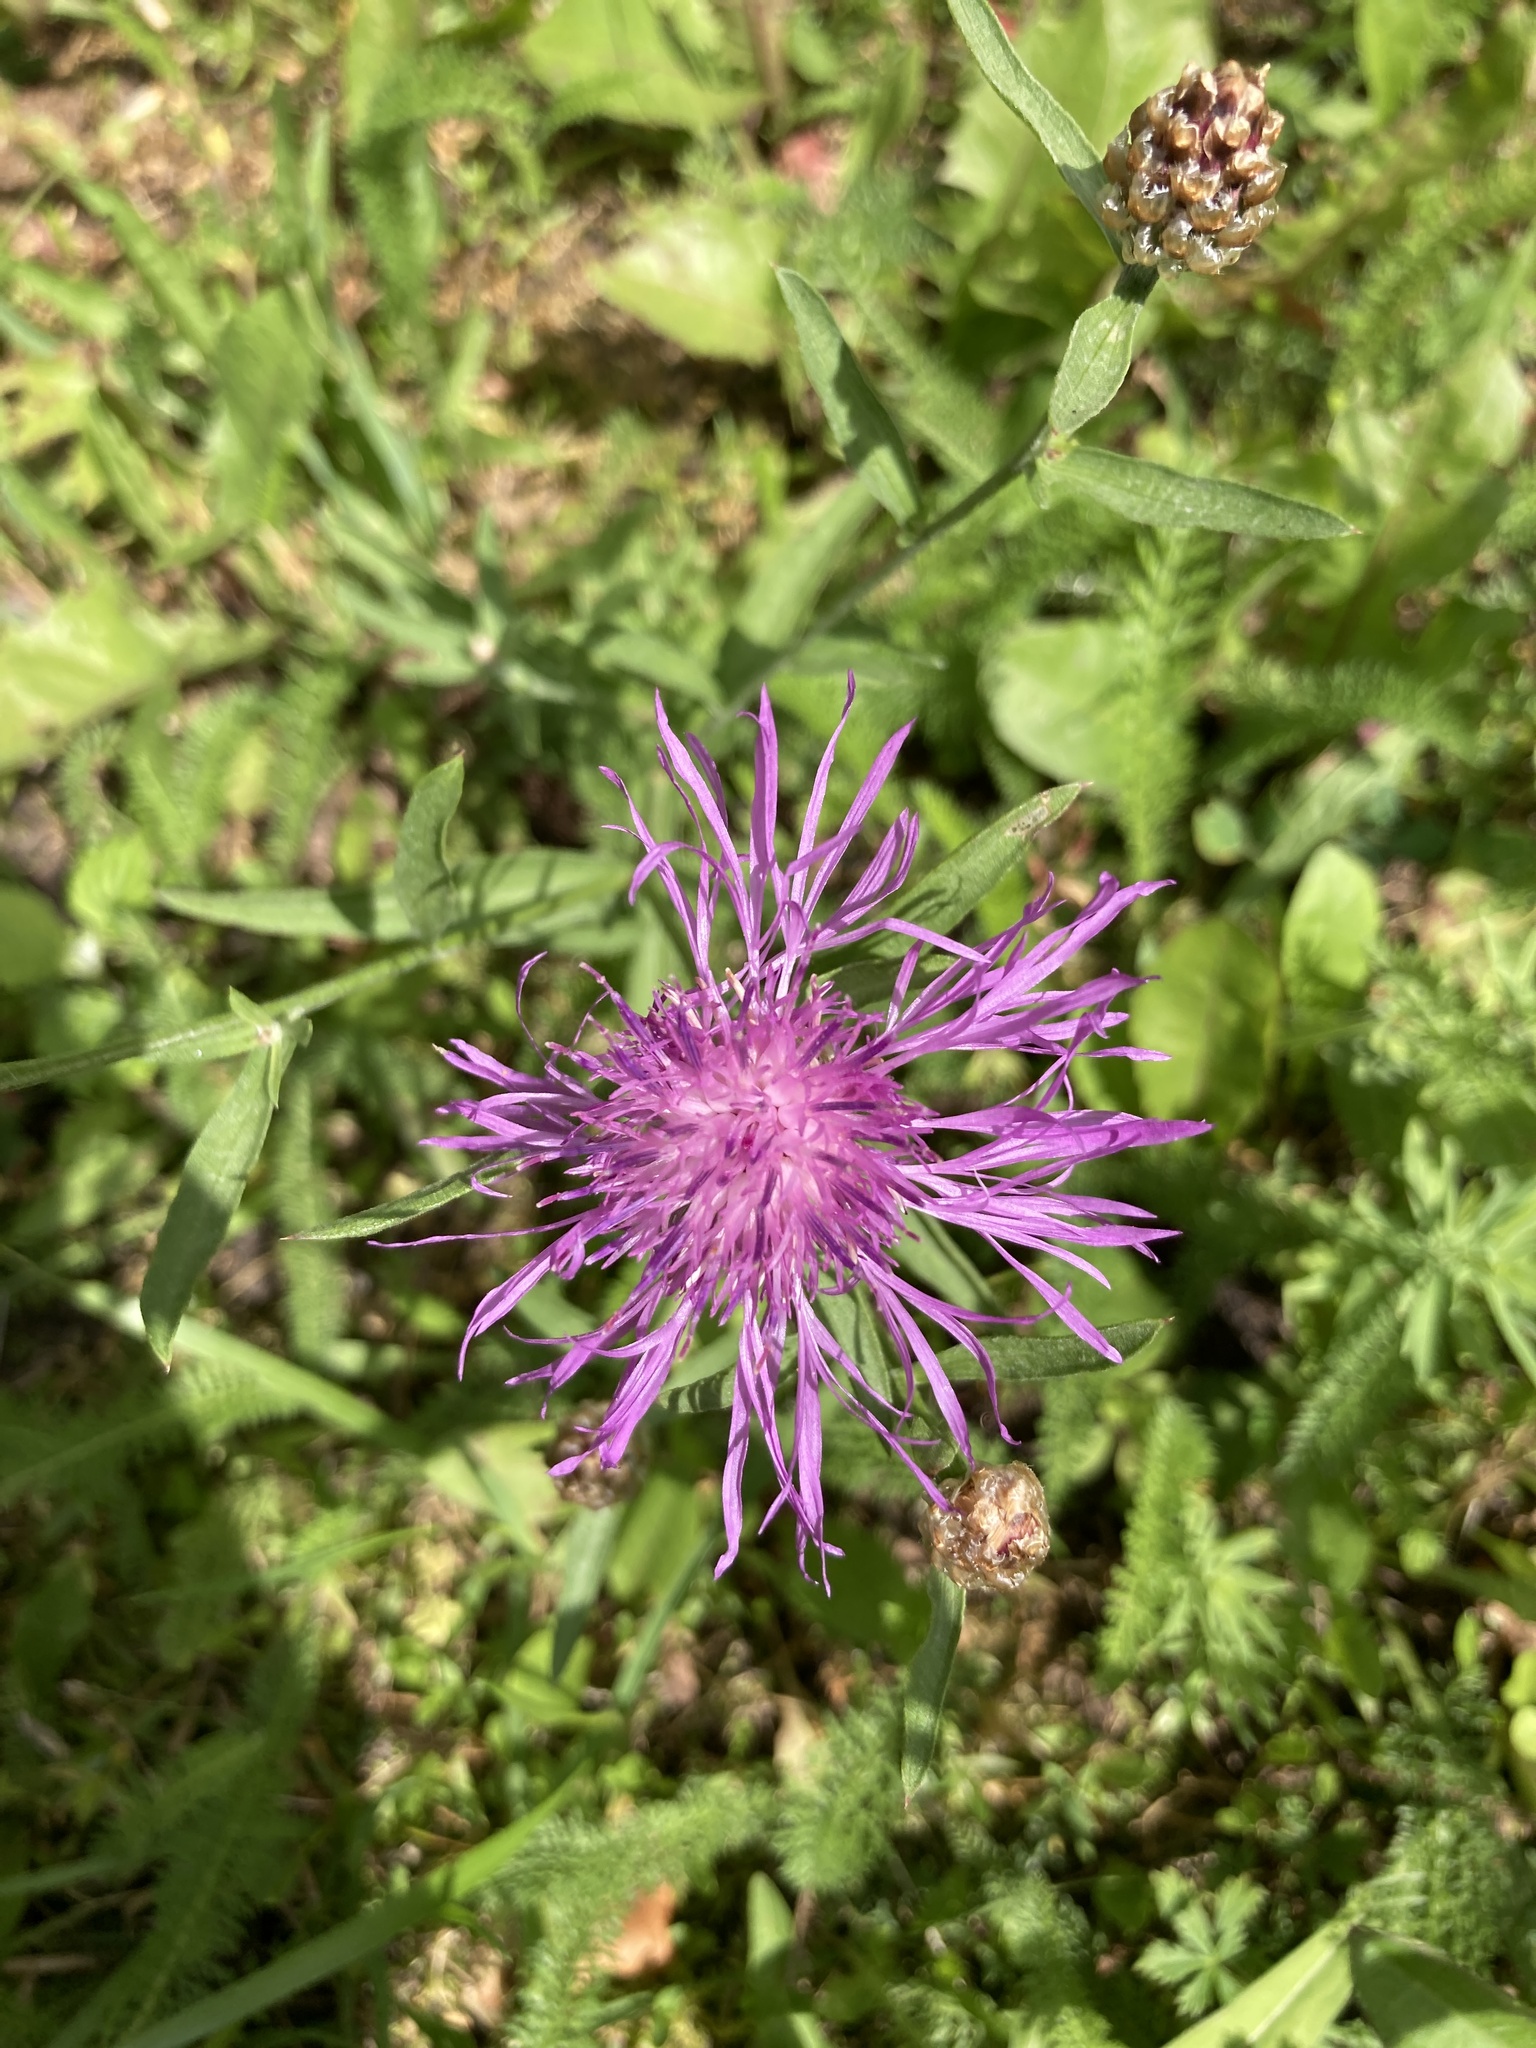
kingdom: Plantae
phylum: Tracheophyta
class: Magnoliopsida
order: Asterales
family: Asteraceae
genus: Centaurea
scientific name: Centaurea jacea
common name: Brown knapweed
